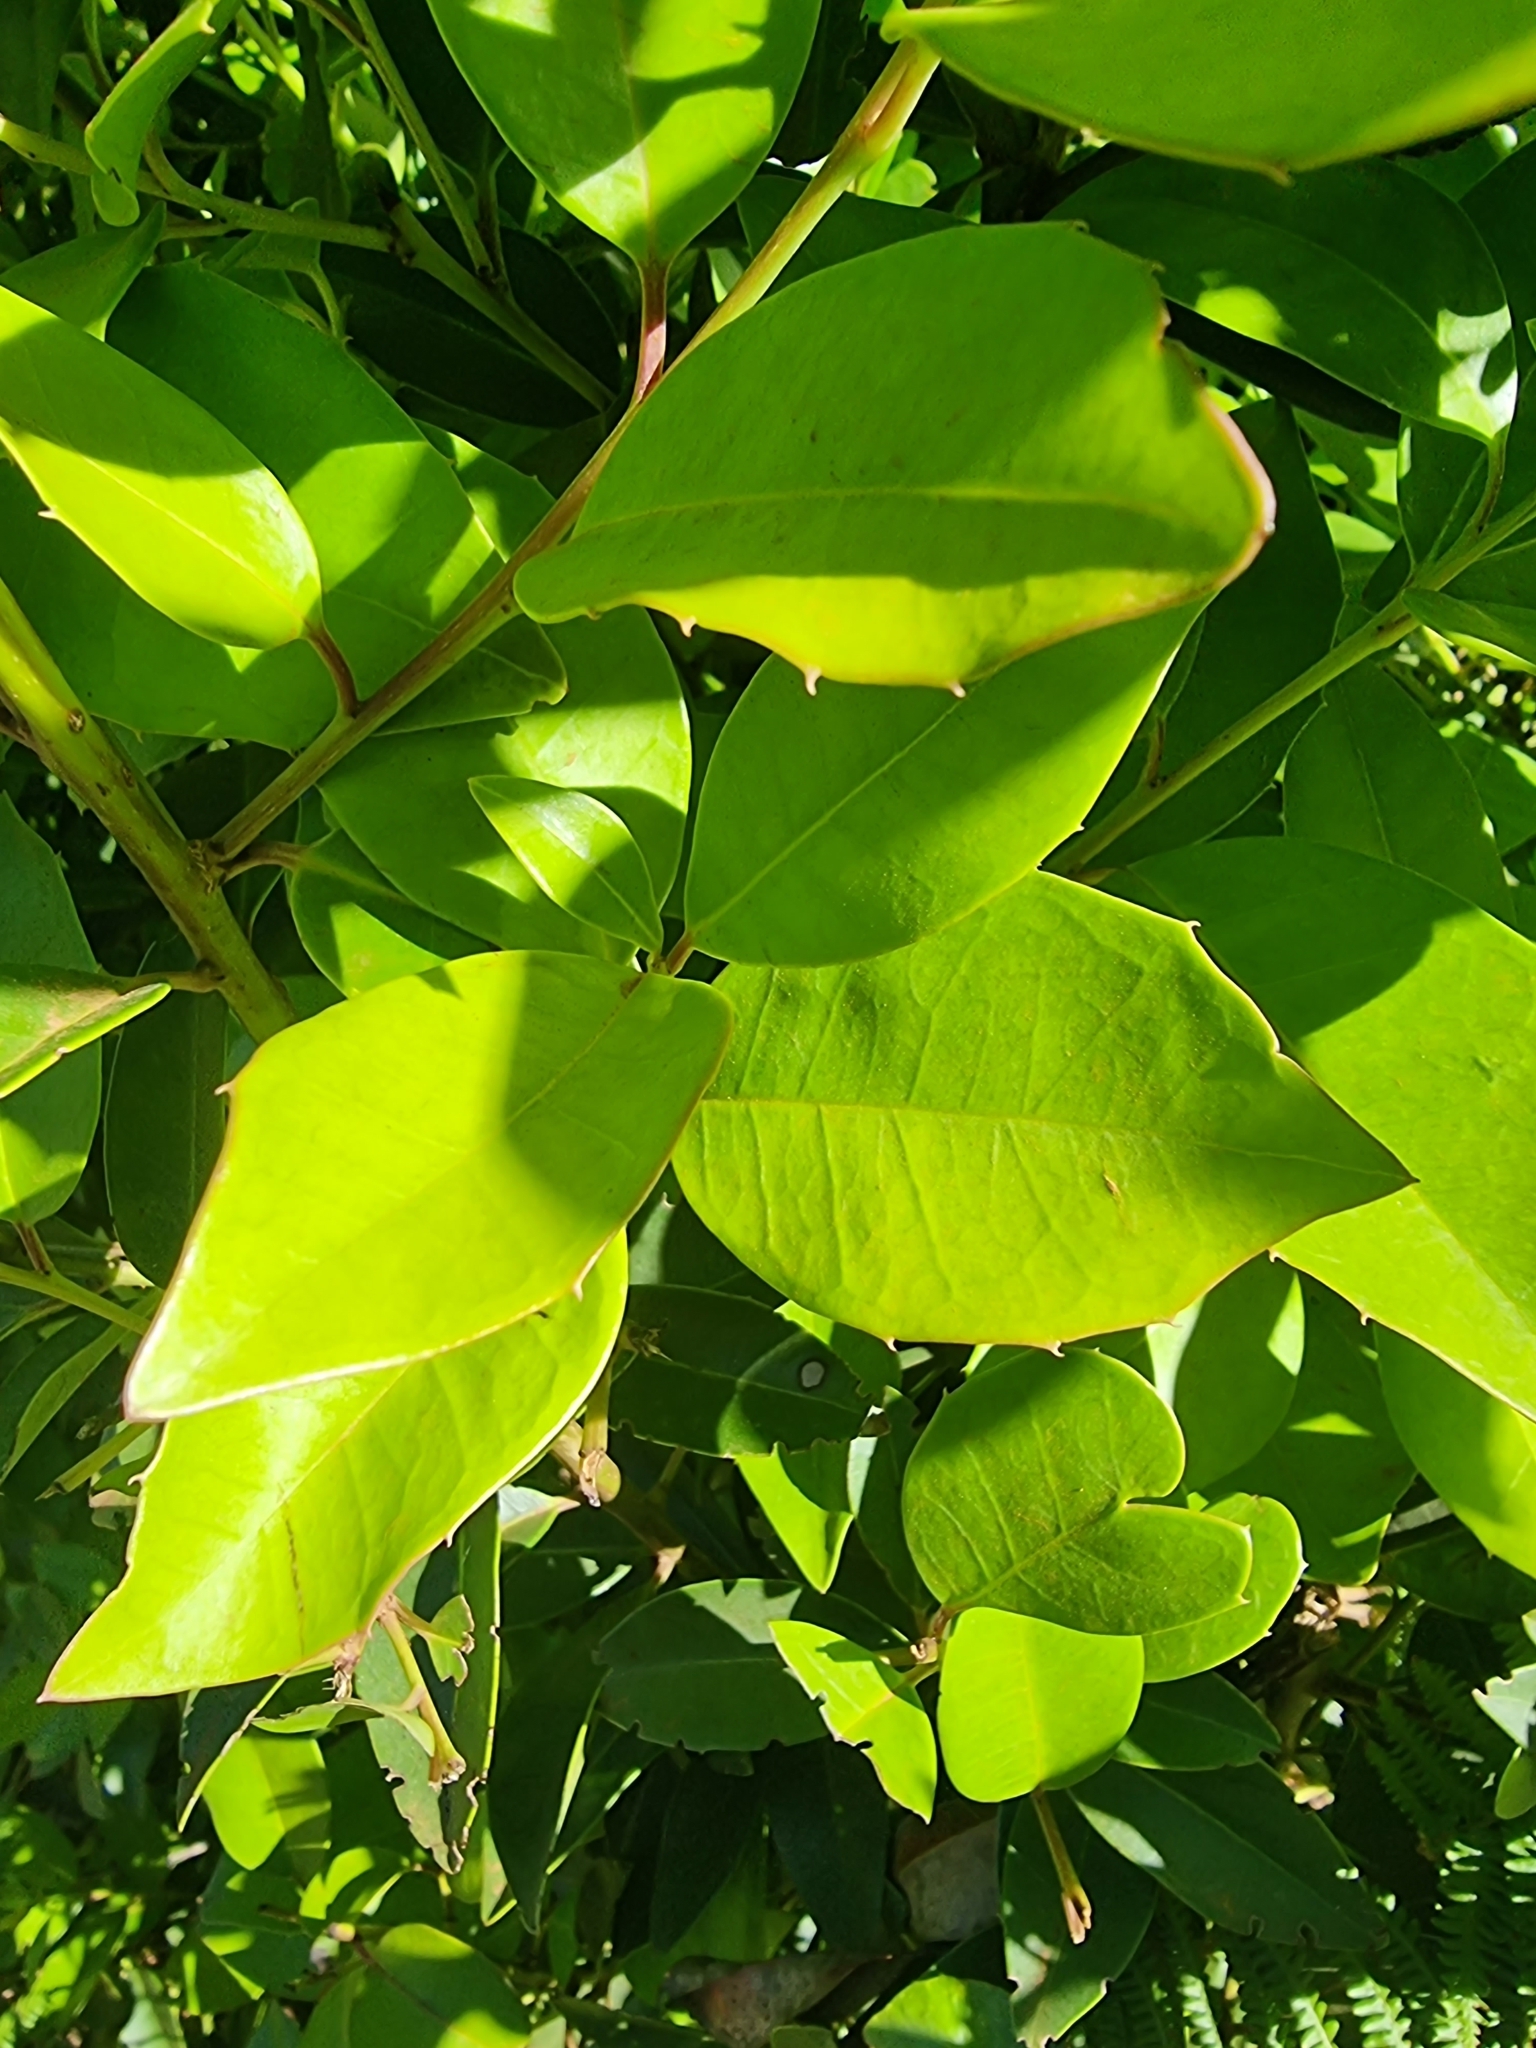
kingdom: Plantae
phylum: Tracheophyta
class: Magnoliopsida
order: Aquifoliales
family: Aquifoliaceae
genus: Ilex
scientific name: Ilex canariensis
